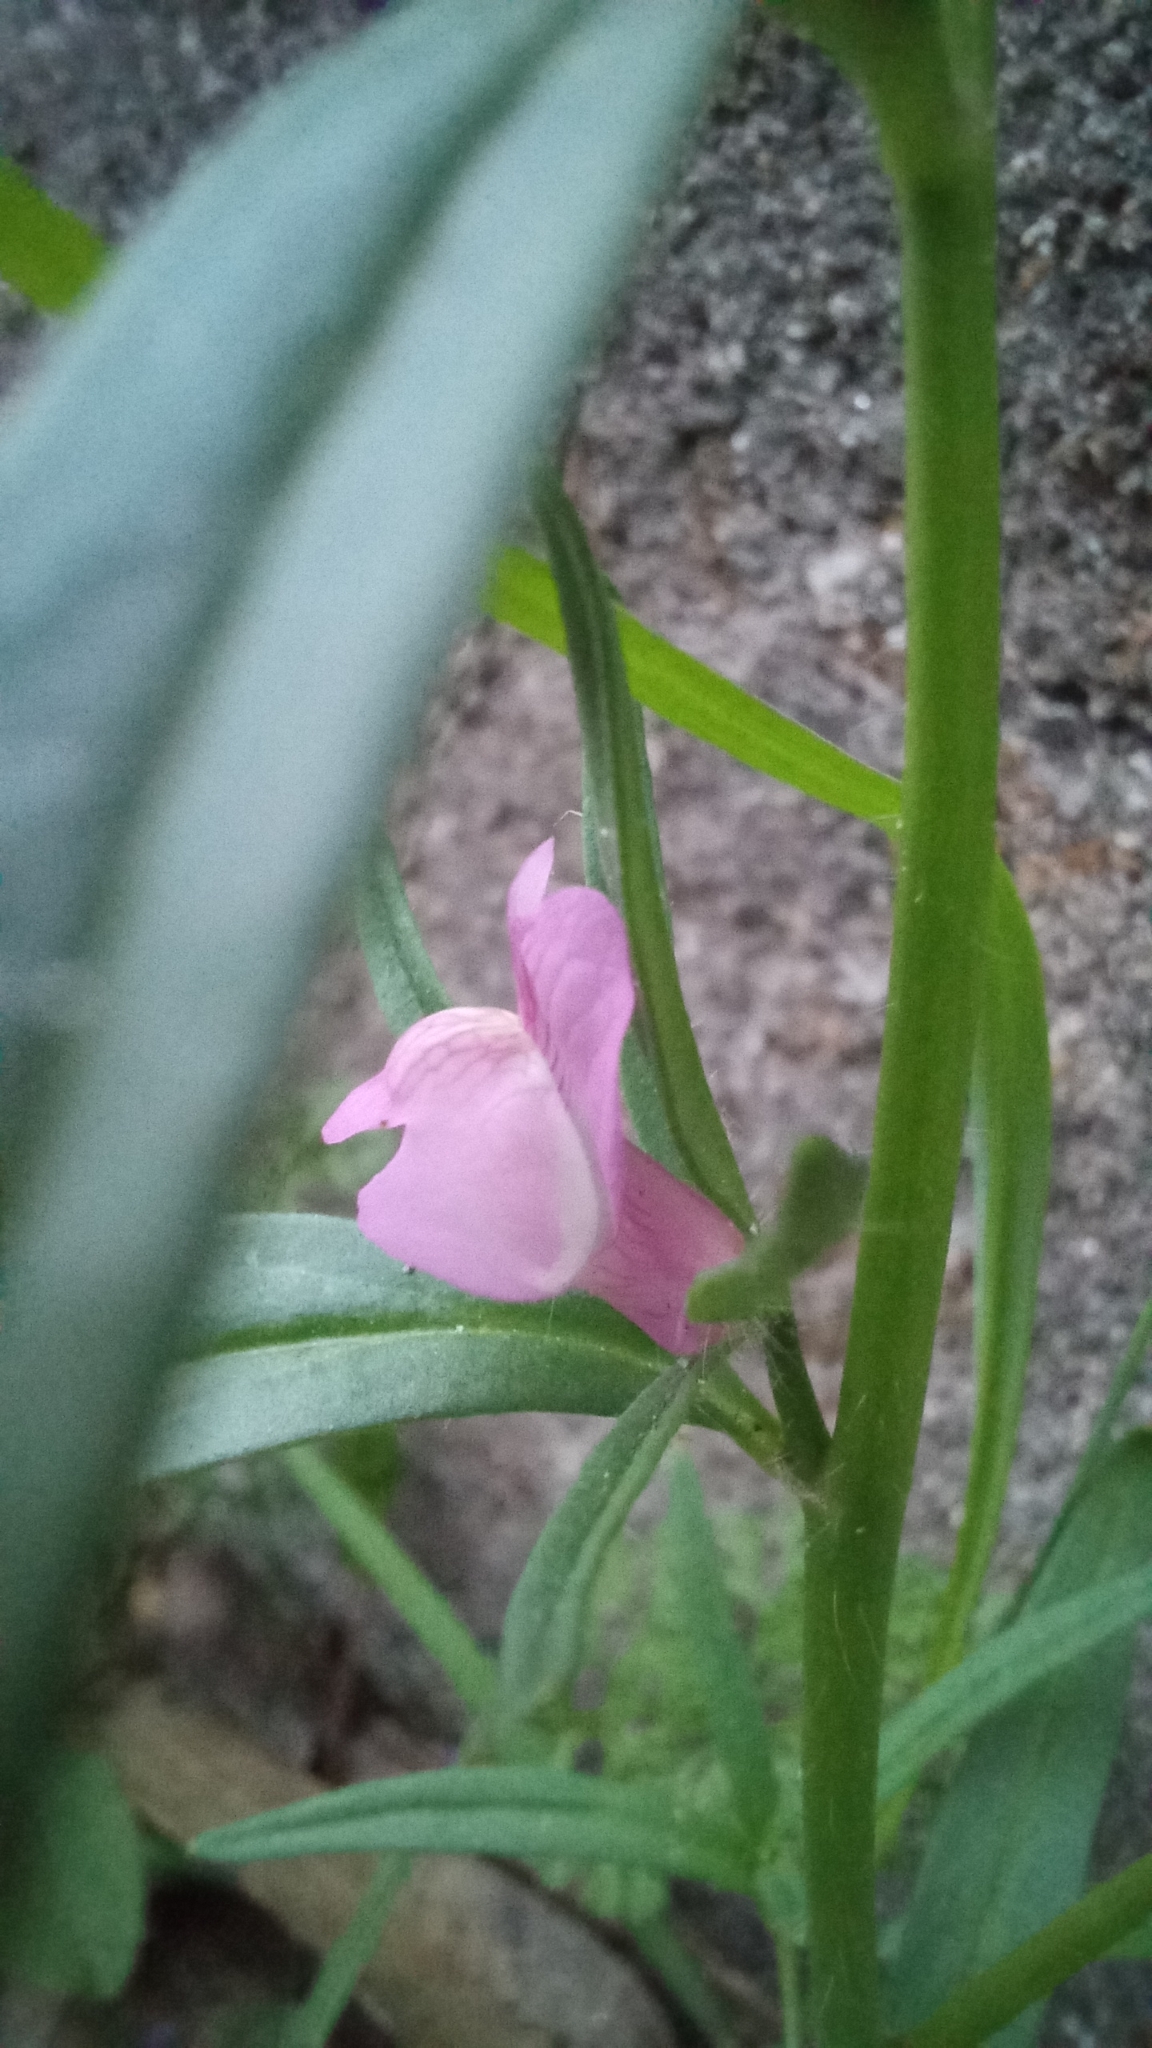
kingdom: Plantae
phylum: Tracheophyta
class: Magnoliopsida
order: Lamiales
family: Plantaginaceae
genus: Misopates
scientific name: Misopates orontium
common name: Weasel's-snout
